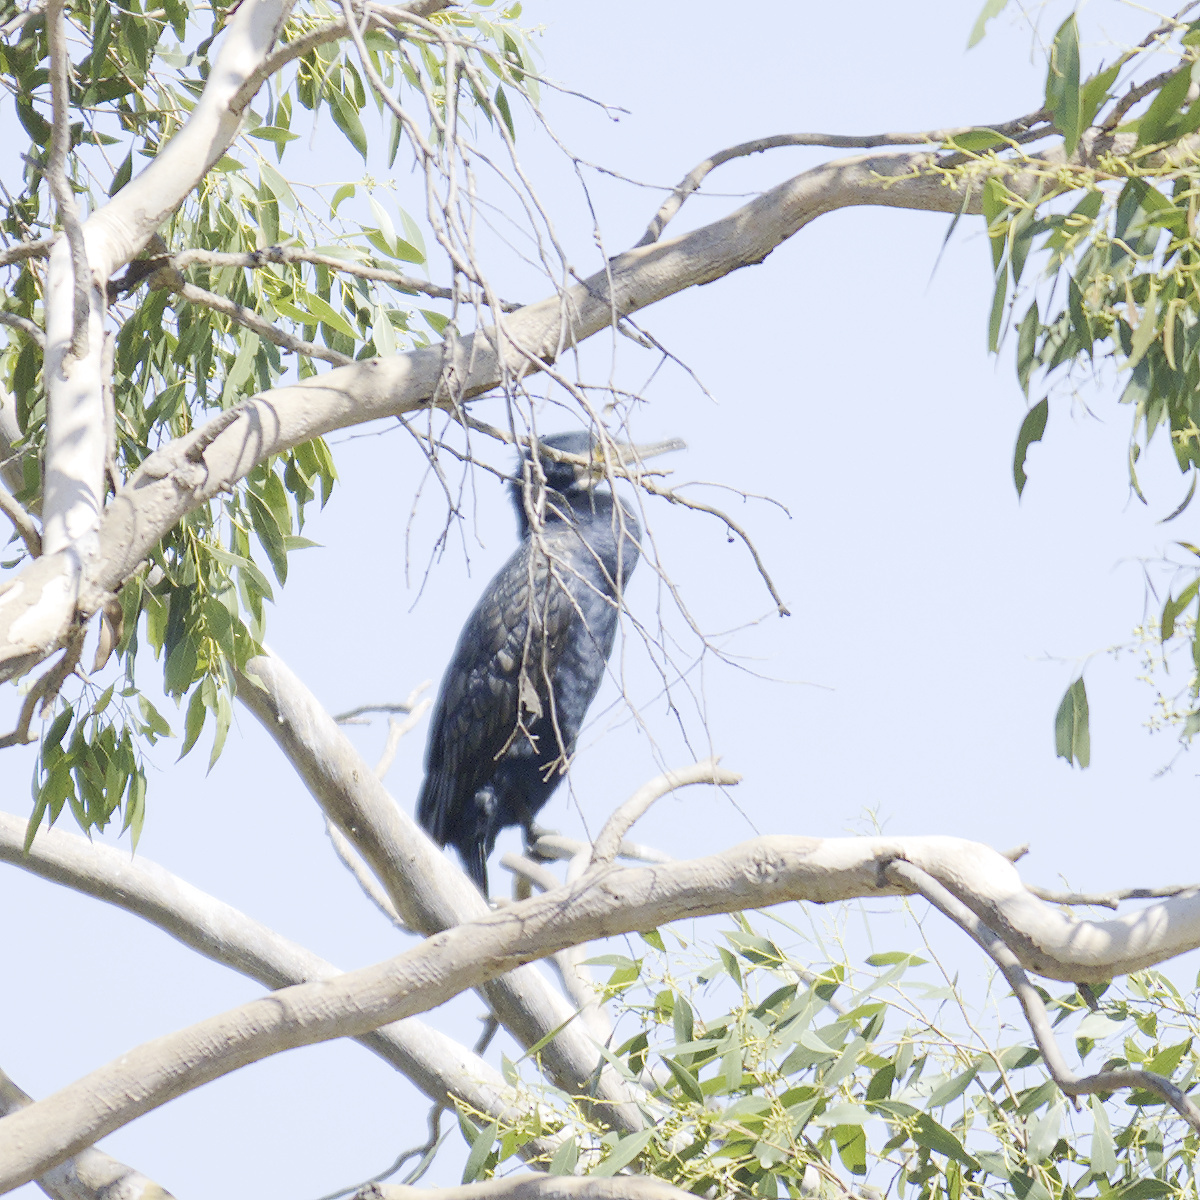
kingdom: Animalia
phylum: Chordata
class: Aves
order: Suliformes
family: Phalacrocoracidae
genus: Phalacrocorax
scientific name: Phalacrocorax carbo
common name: Great cormorant
